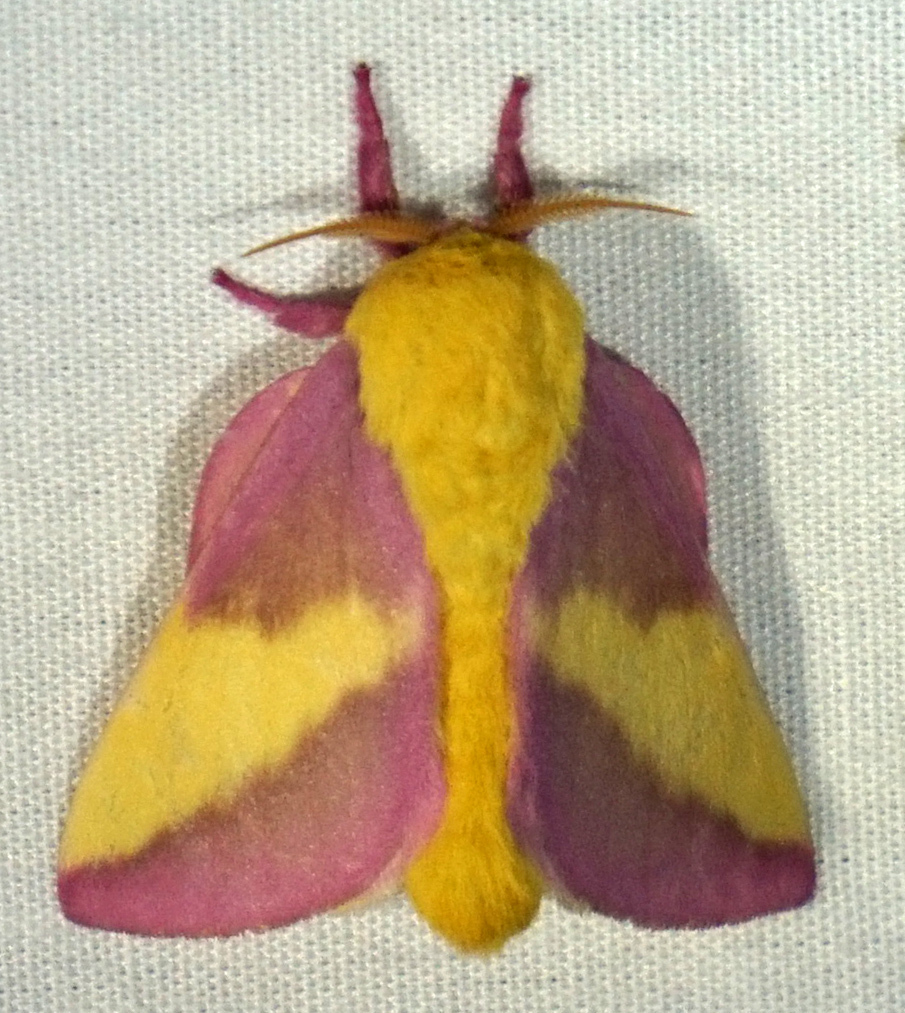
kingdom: Animalia
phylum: Arthropoda
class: Insecta
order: Lepidoptera
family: Saturniidae
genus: Dryocampa
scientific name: Dryocampa rubicunda
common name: Rosy maple moth
